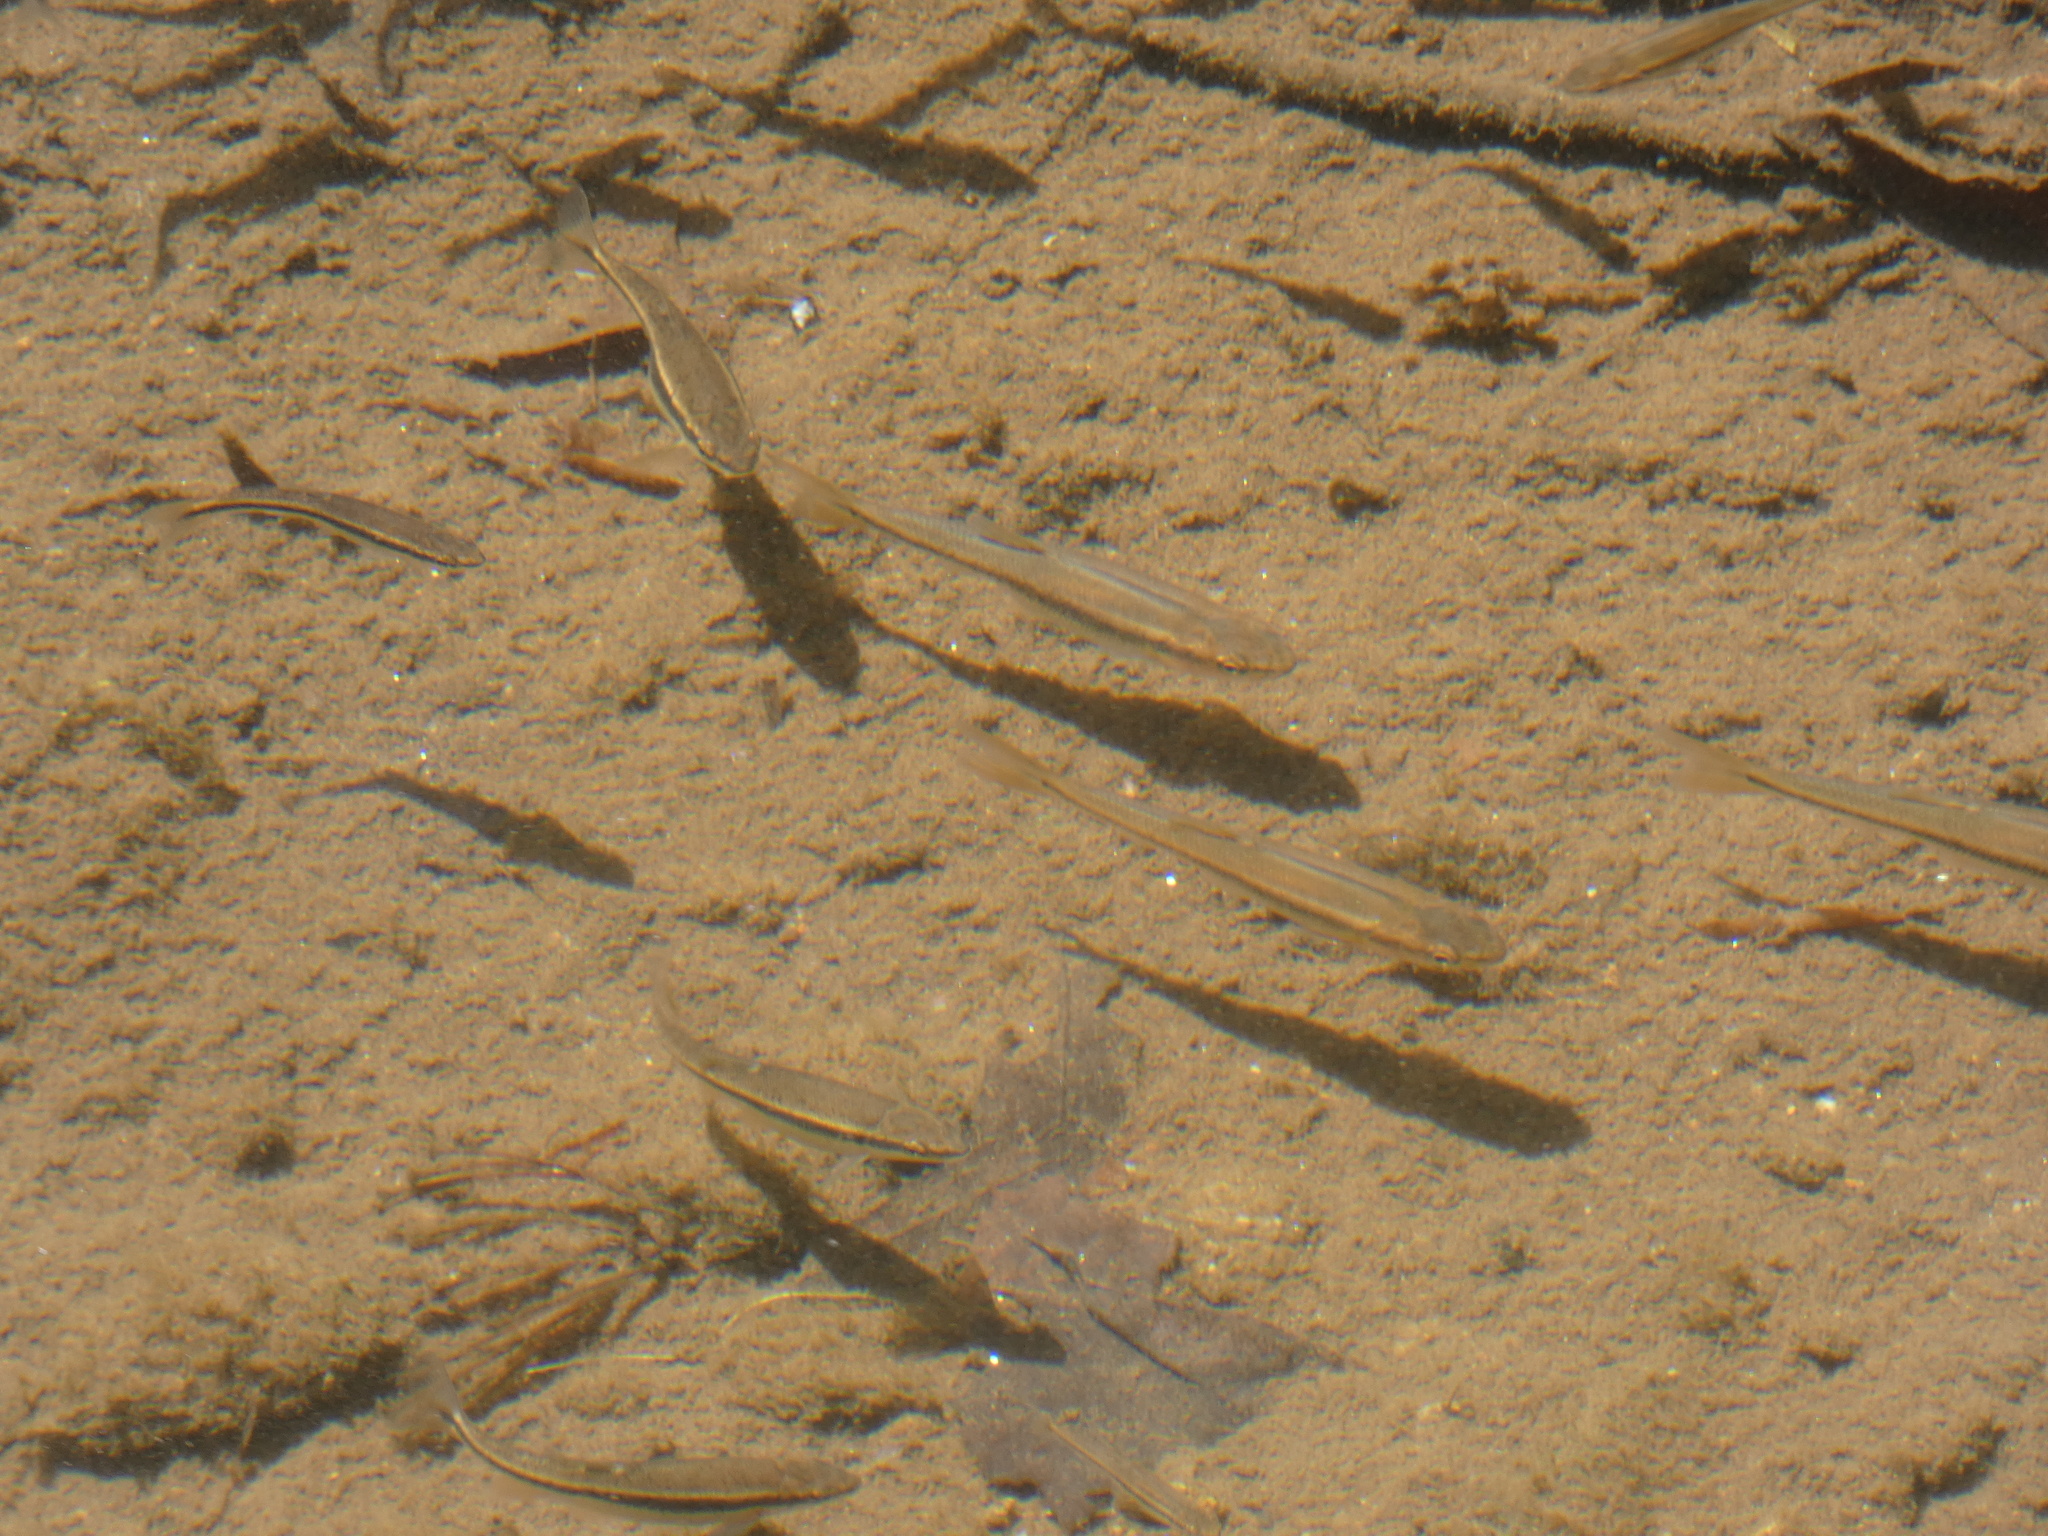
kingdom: Animalia
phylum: Chordata
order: Cypriniformes
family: Cyprinidae
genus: Rhinichthys
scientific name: Rhinichthys atratulus
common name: Eastern blacknose dace
